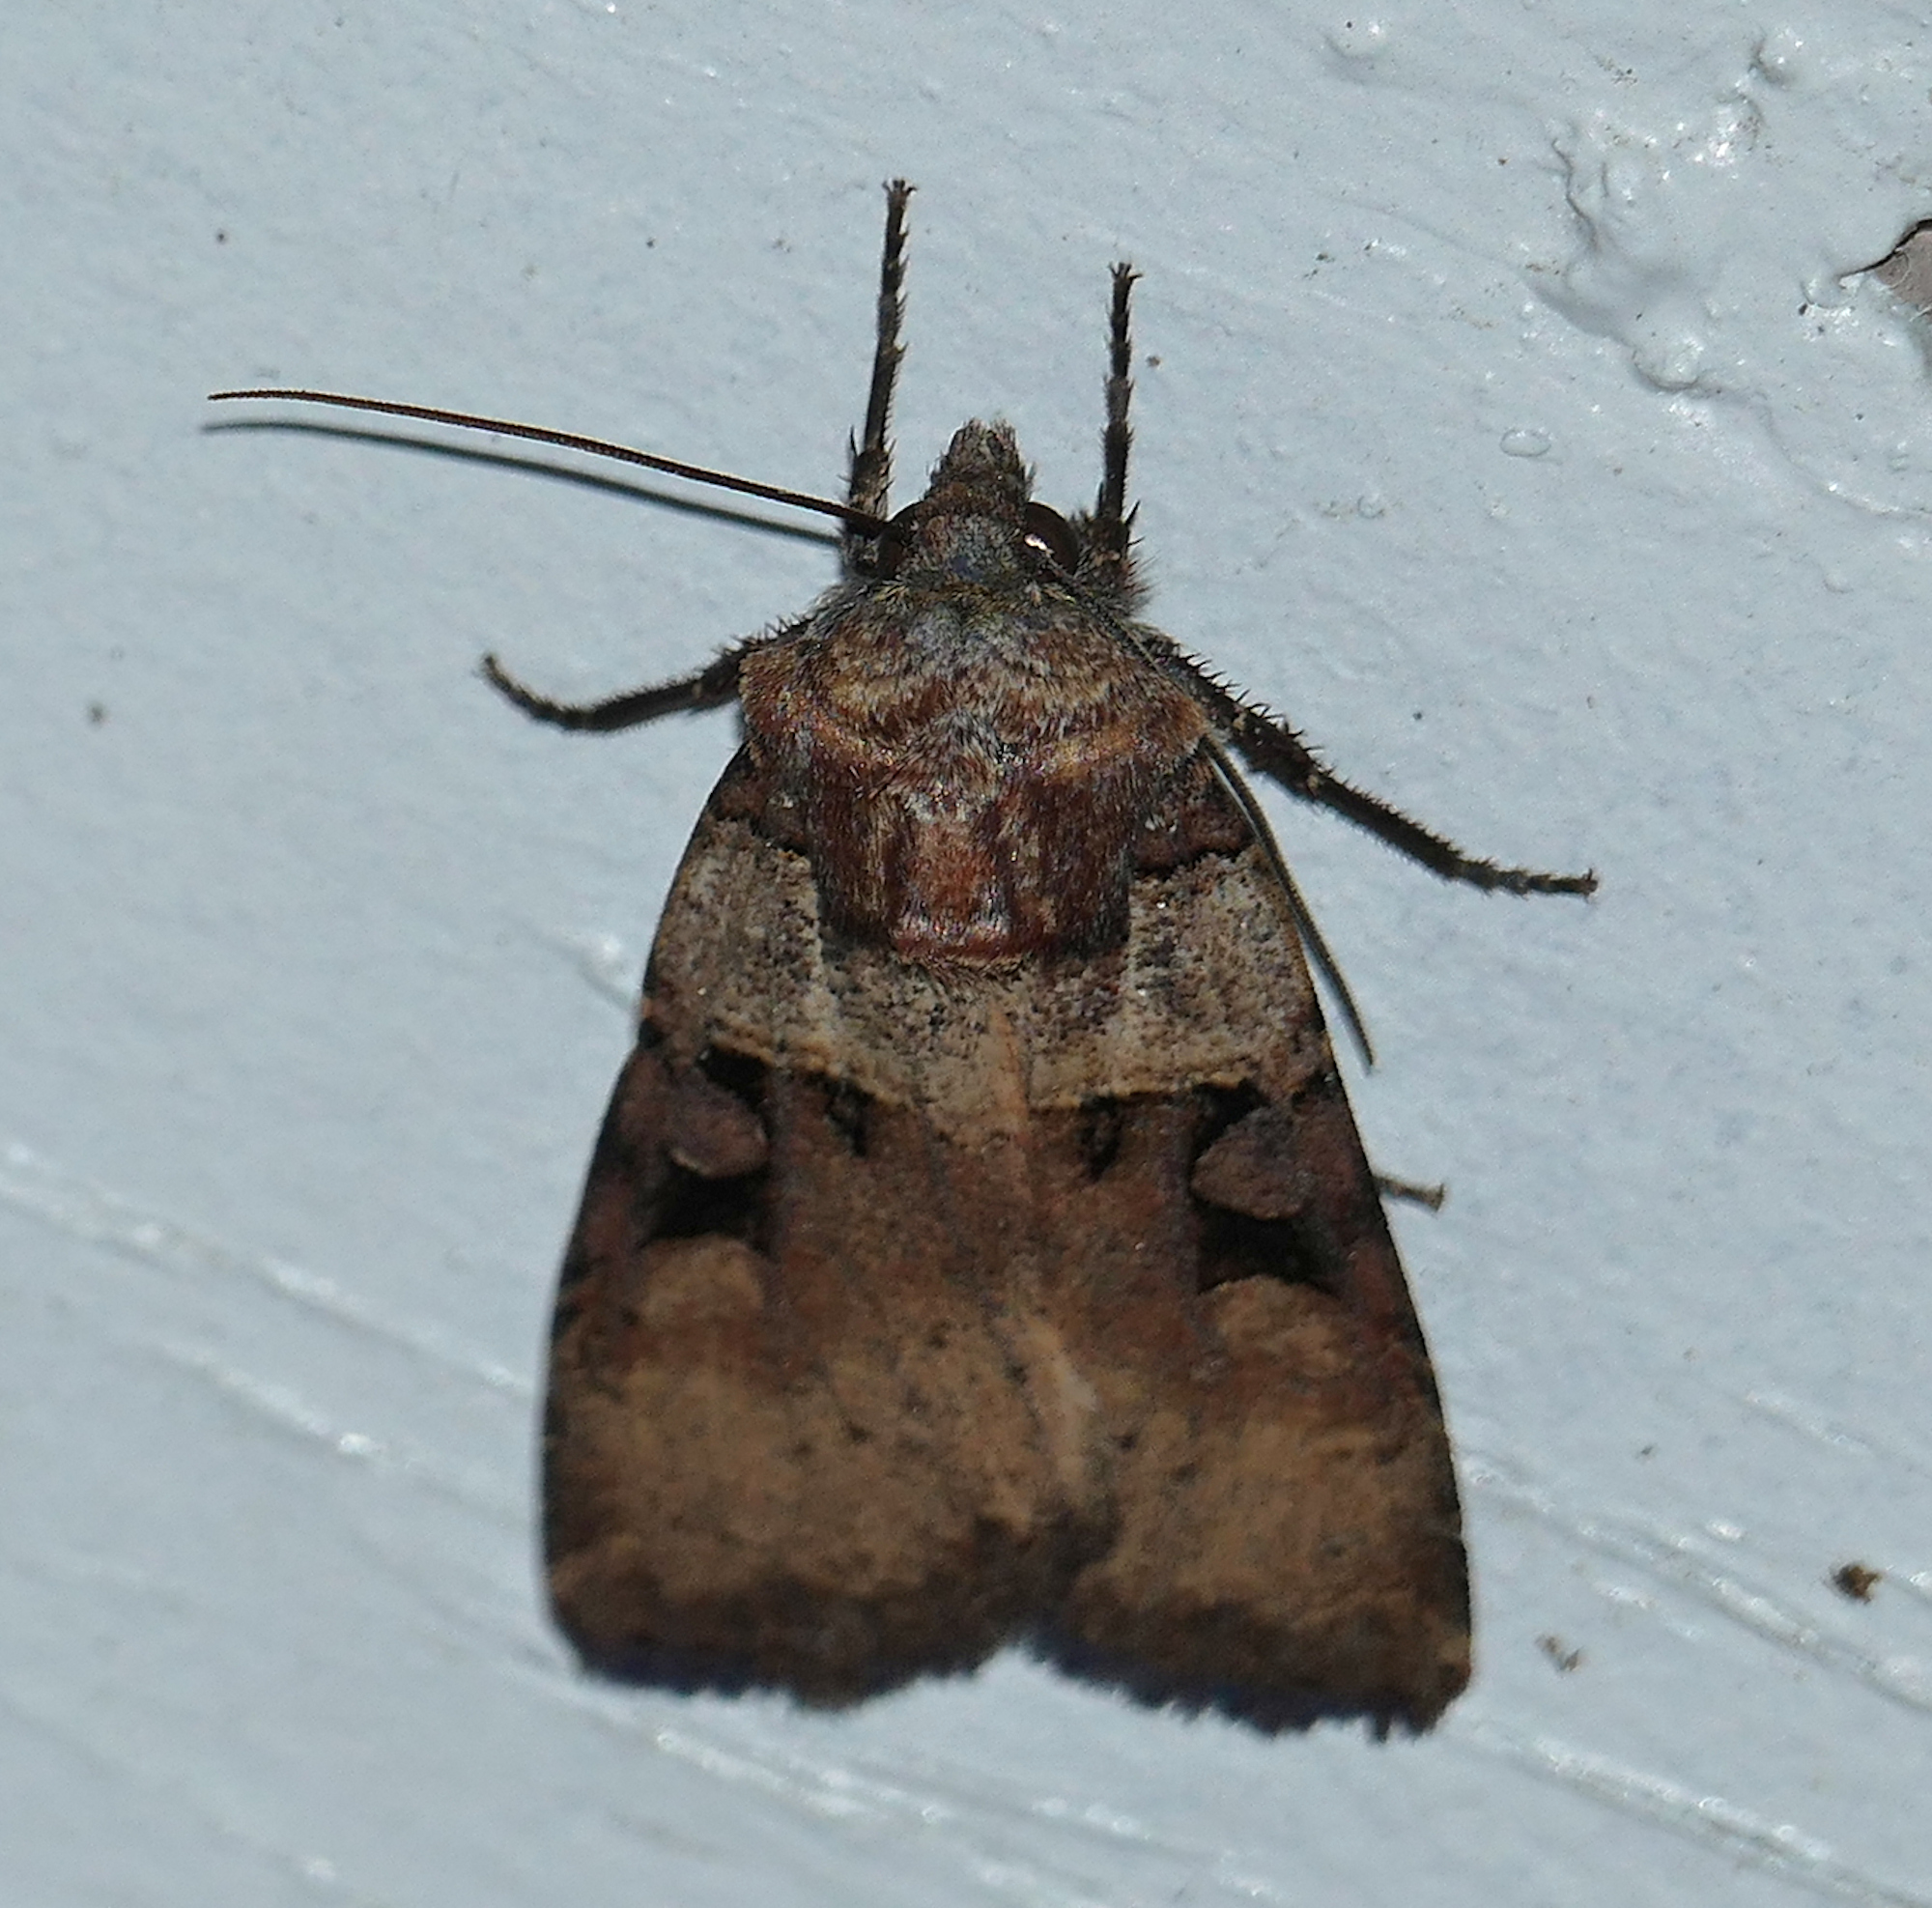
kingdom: Animalia
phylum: Arthropoda
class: Insecta
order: Lepidoptera
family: Noctuidae
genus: Richia
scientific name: Richia serano
